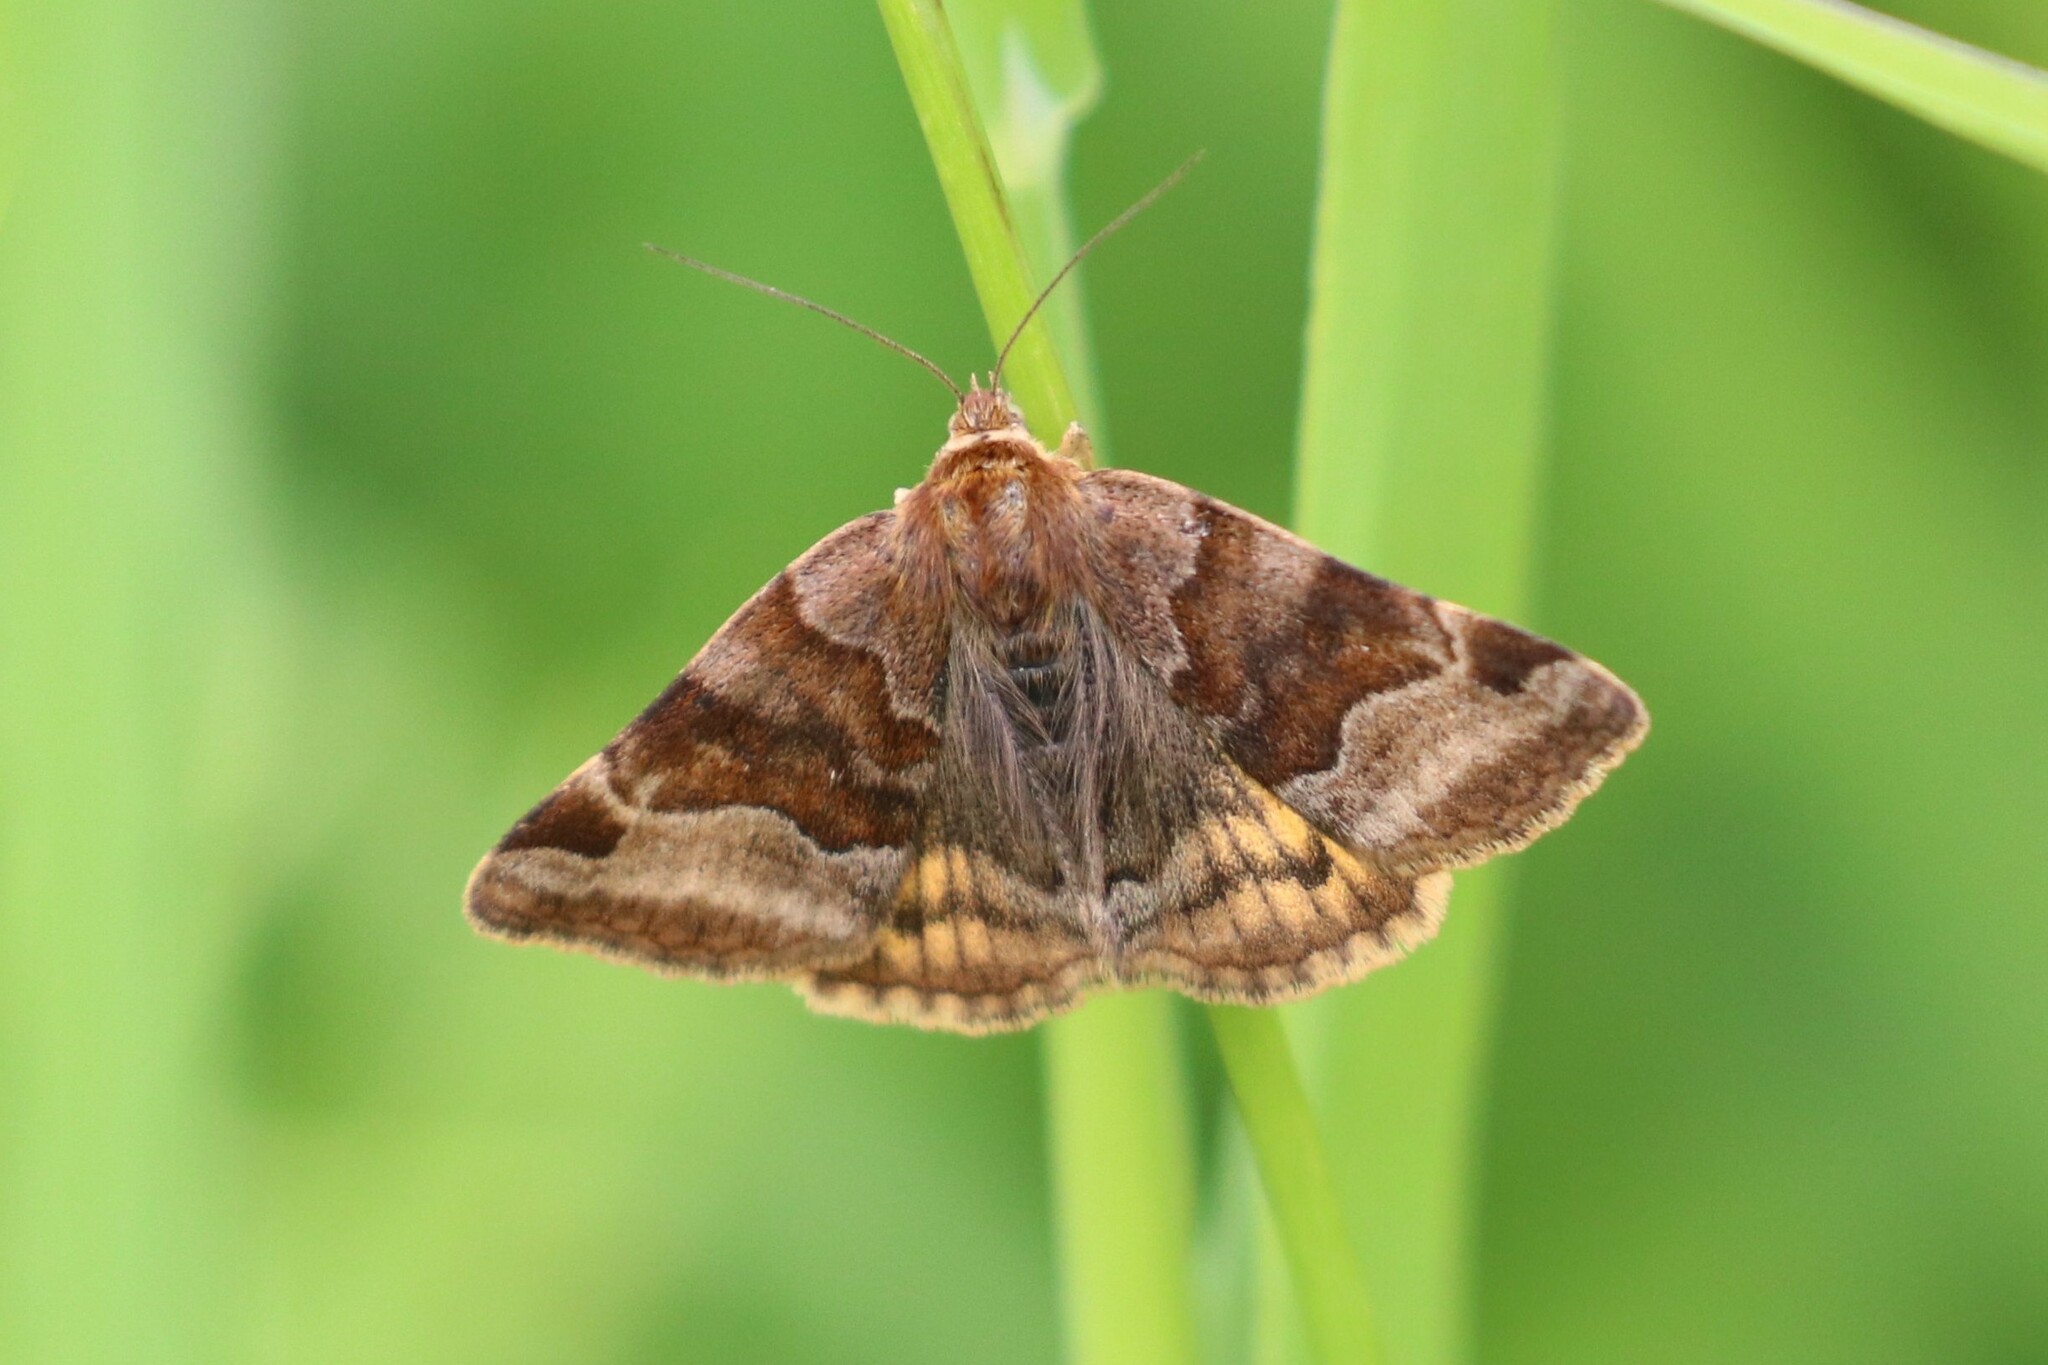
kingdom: Animalia
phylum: Arthropoda
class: Insecta
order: Lepidoptera
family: Erebidae
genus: Euclidia
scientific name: Euclidia glyphica
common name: Burnet companion
